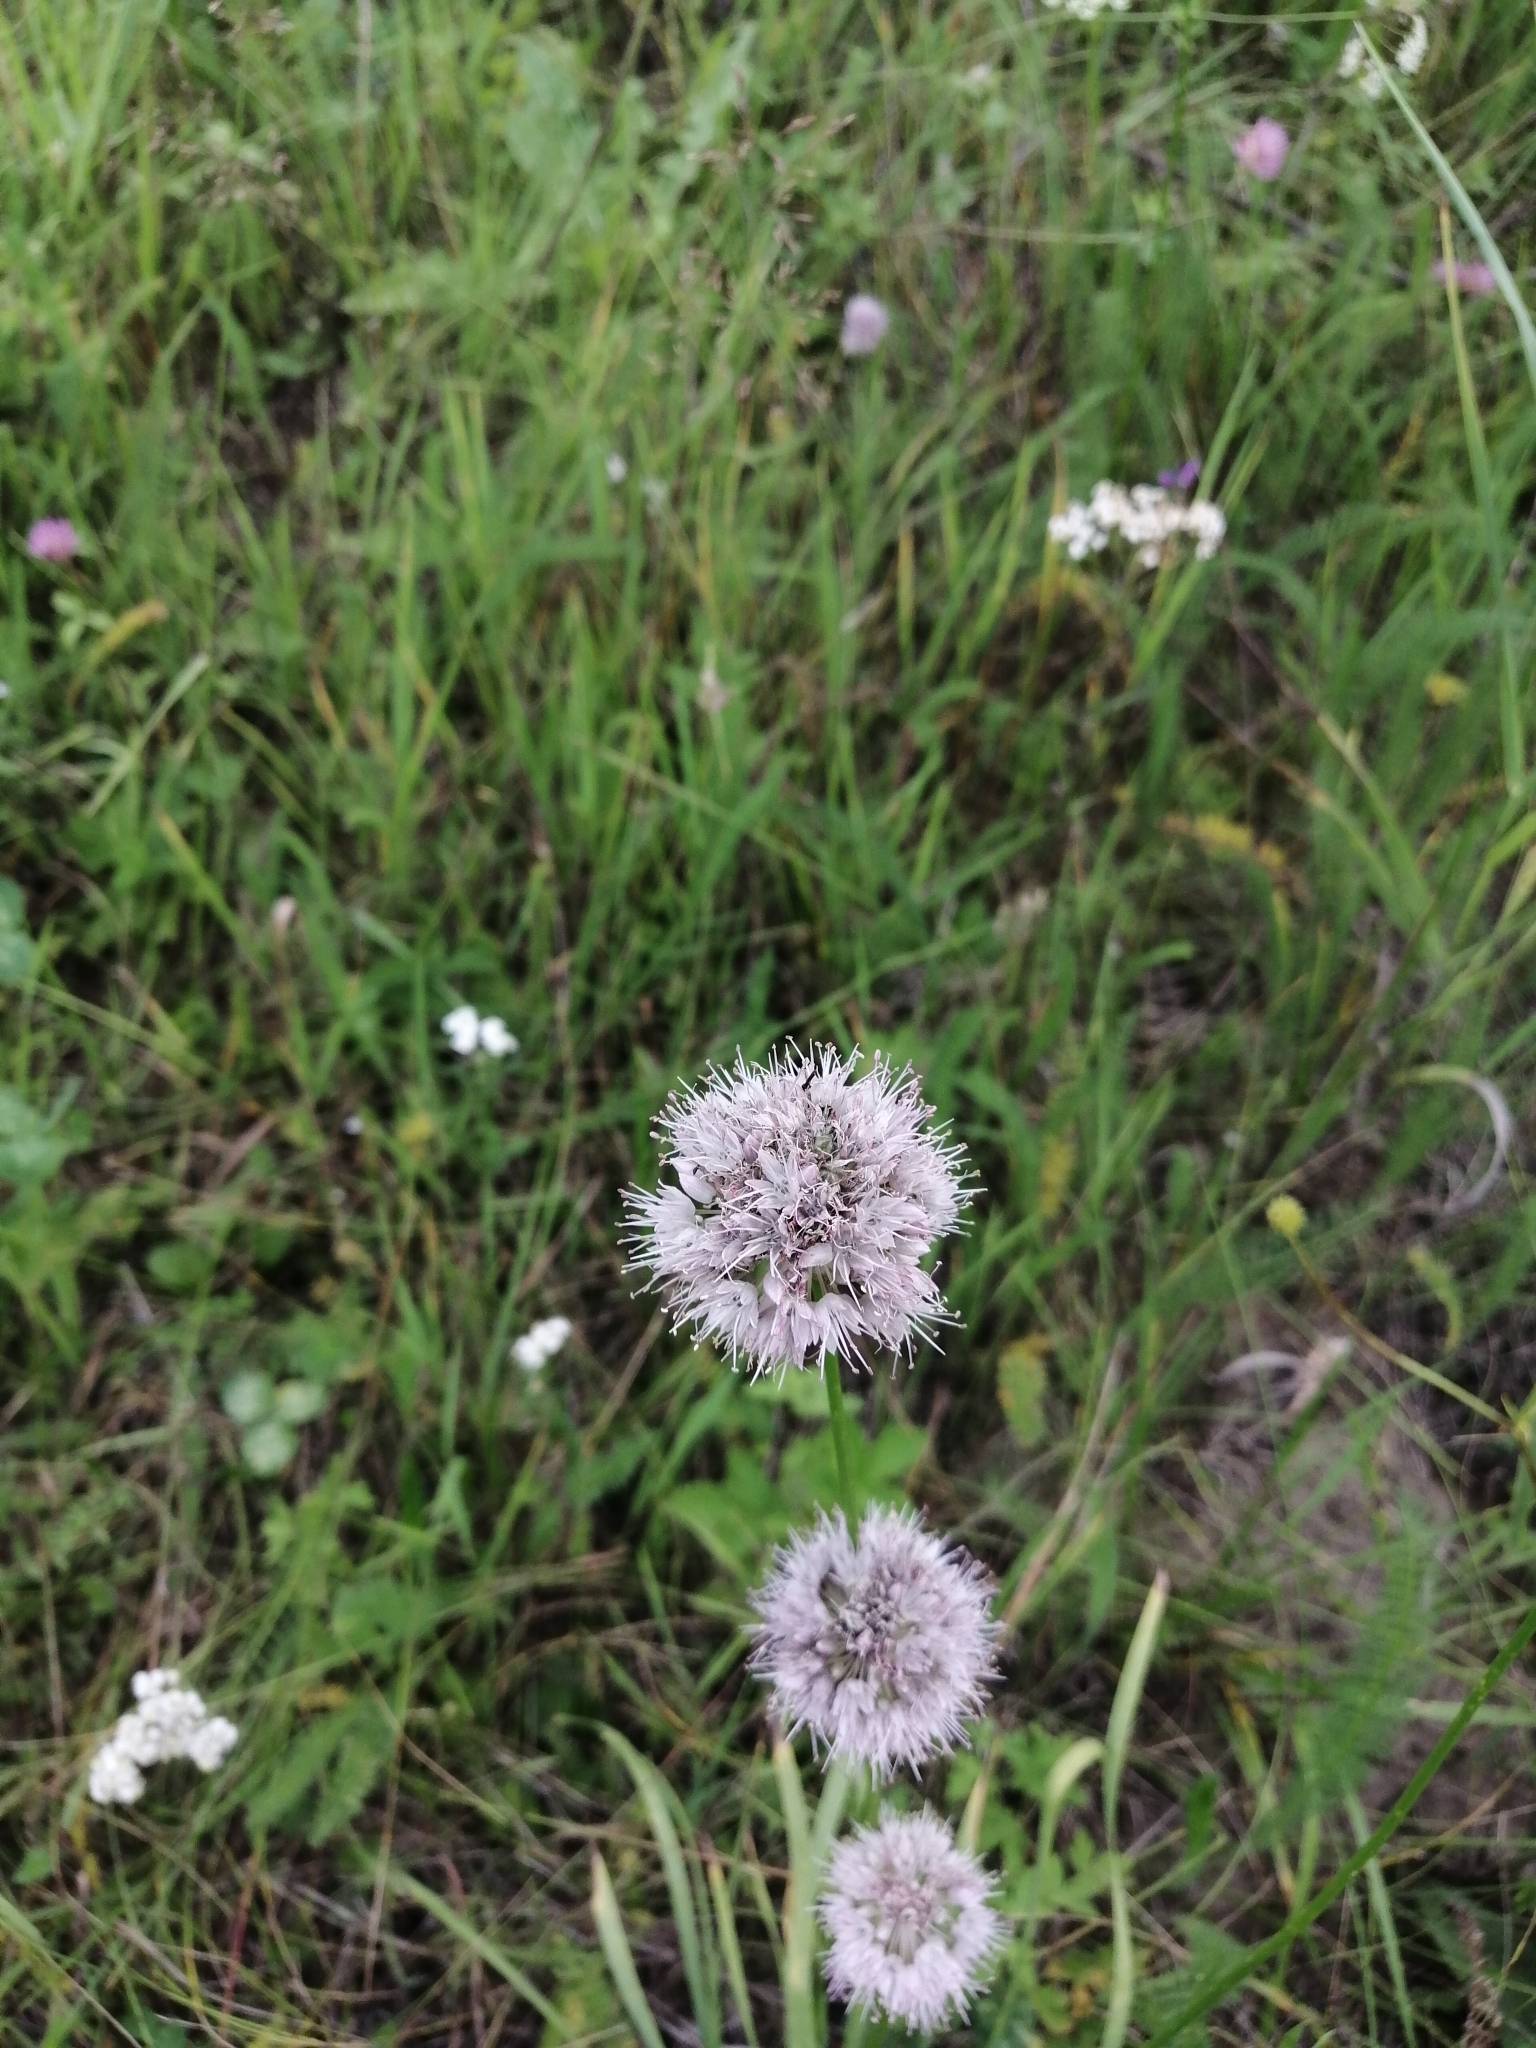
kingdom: Plantae
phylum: Tracheophyta
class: Liliopsida
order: Asparagales
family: Amaryllidaceae
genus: Allium
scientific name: Allium splendens
